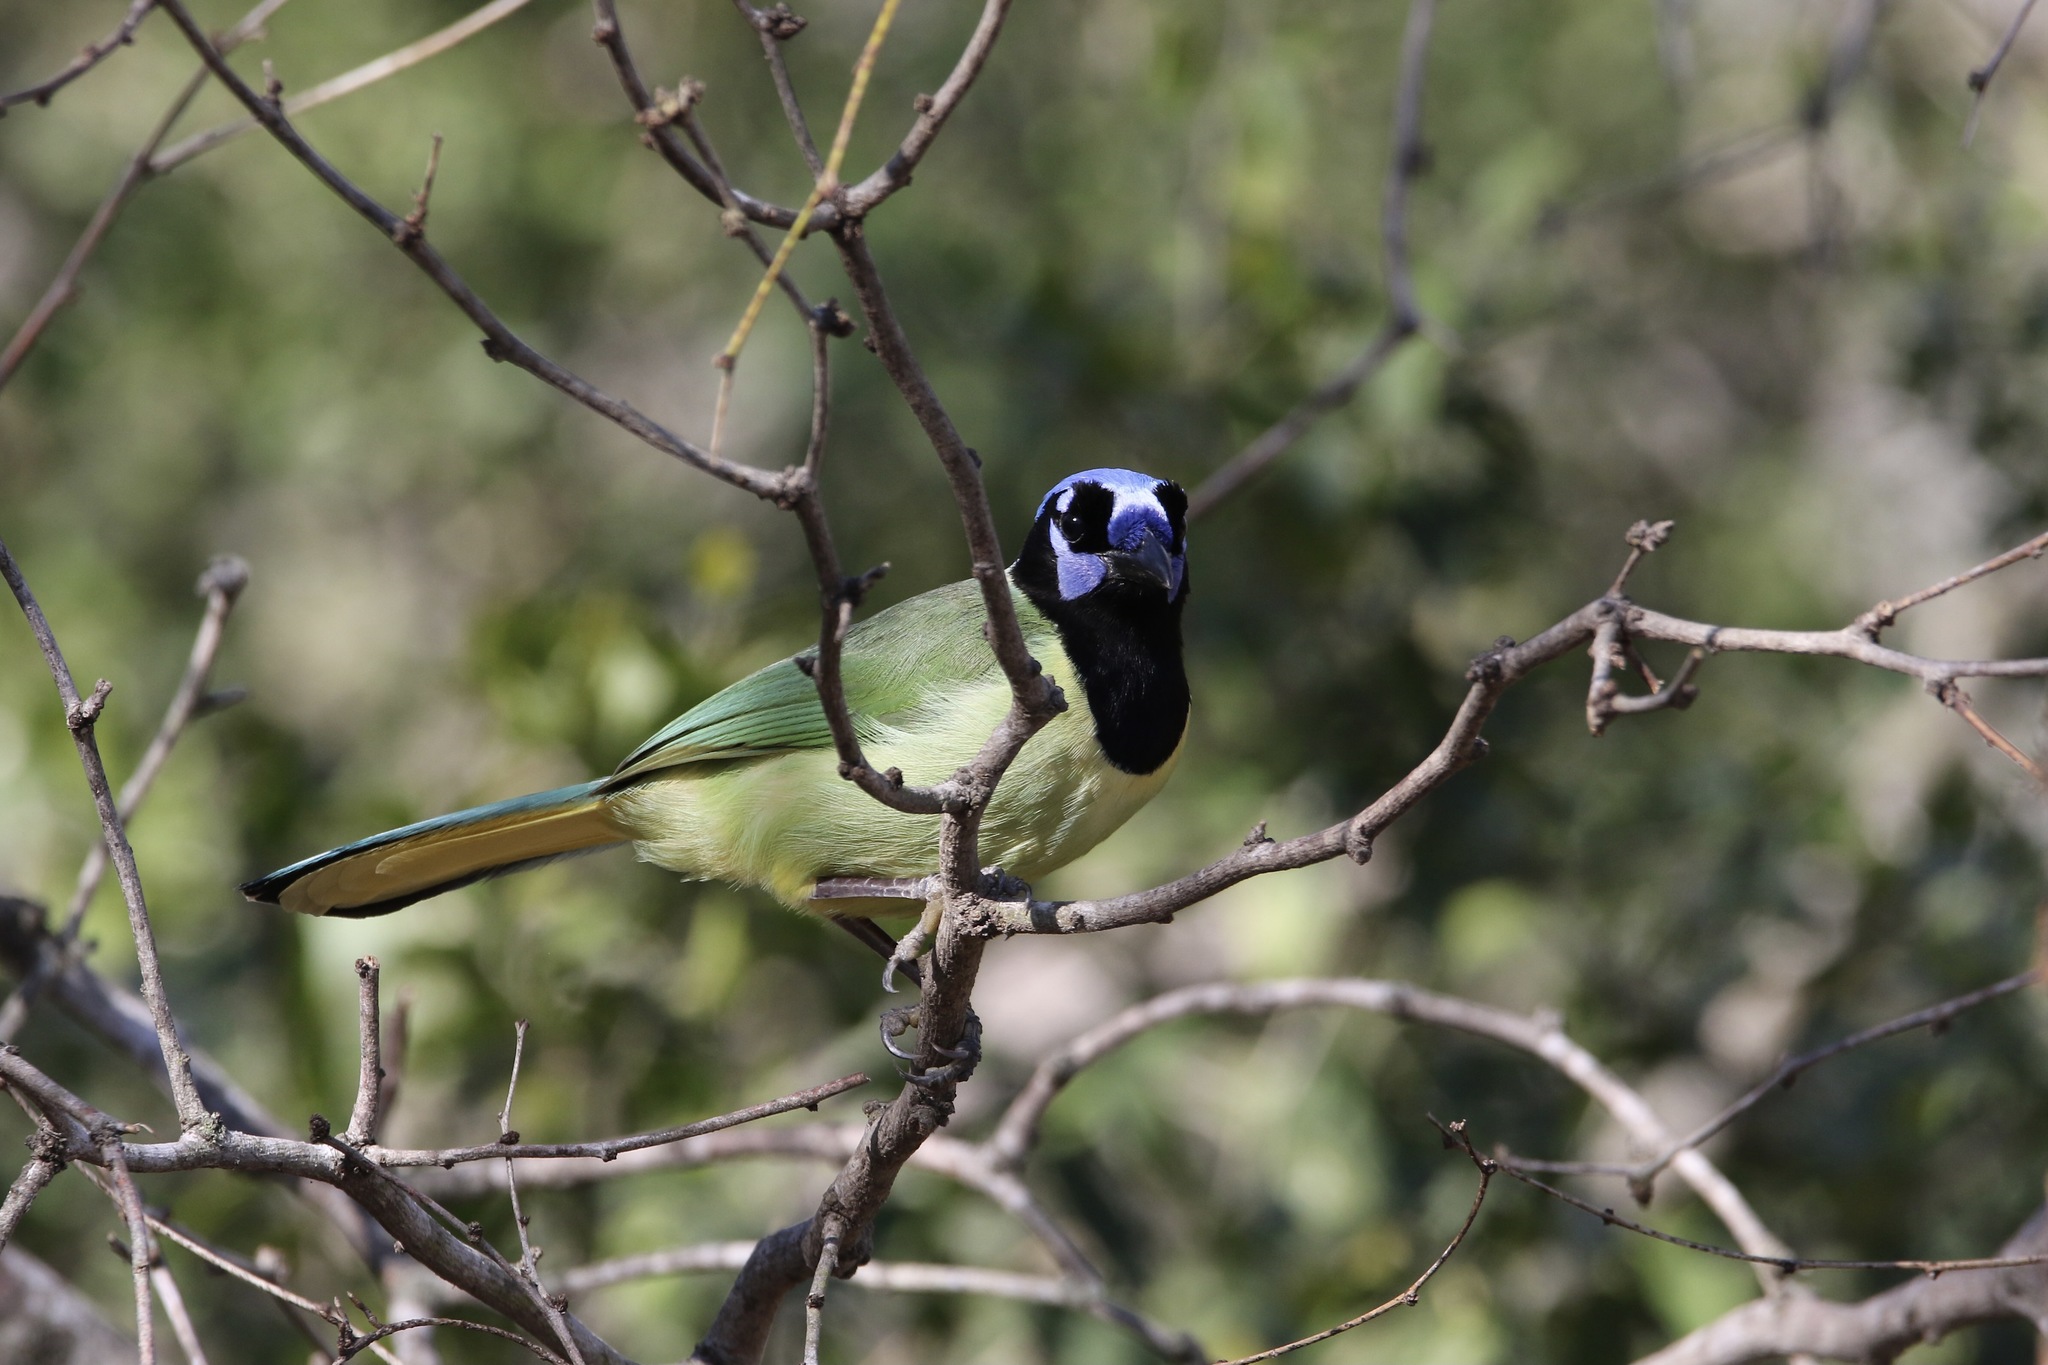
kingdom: Animalia
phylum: Chordata
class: Aves
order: Passeriformes
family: Corvidae
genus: Cyanocorax
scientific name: Cyanocorax yncas
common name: Green jay
